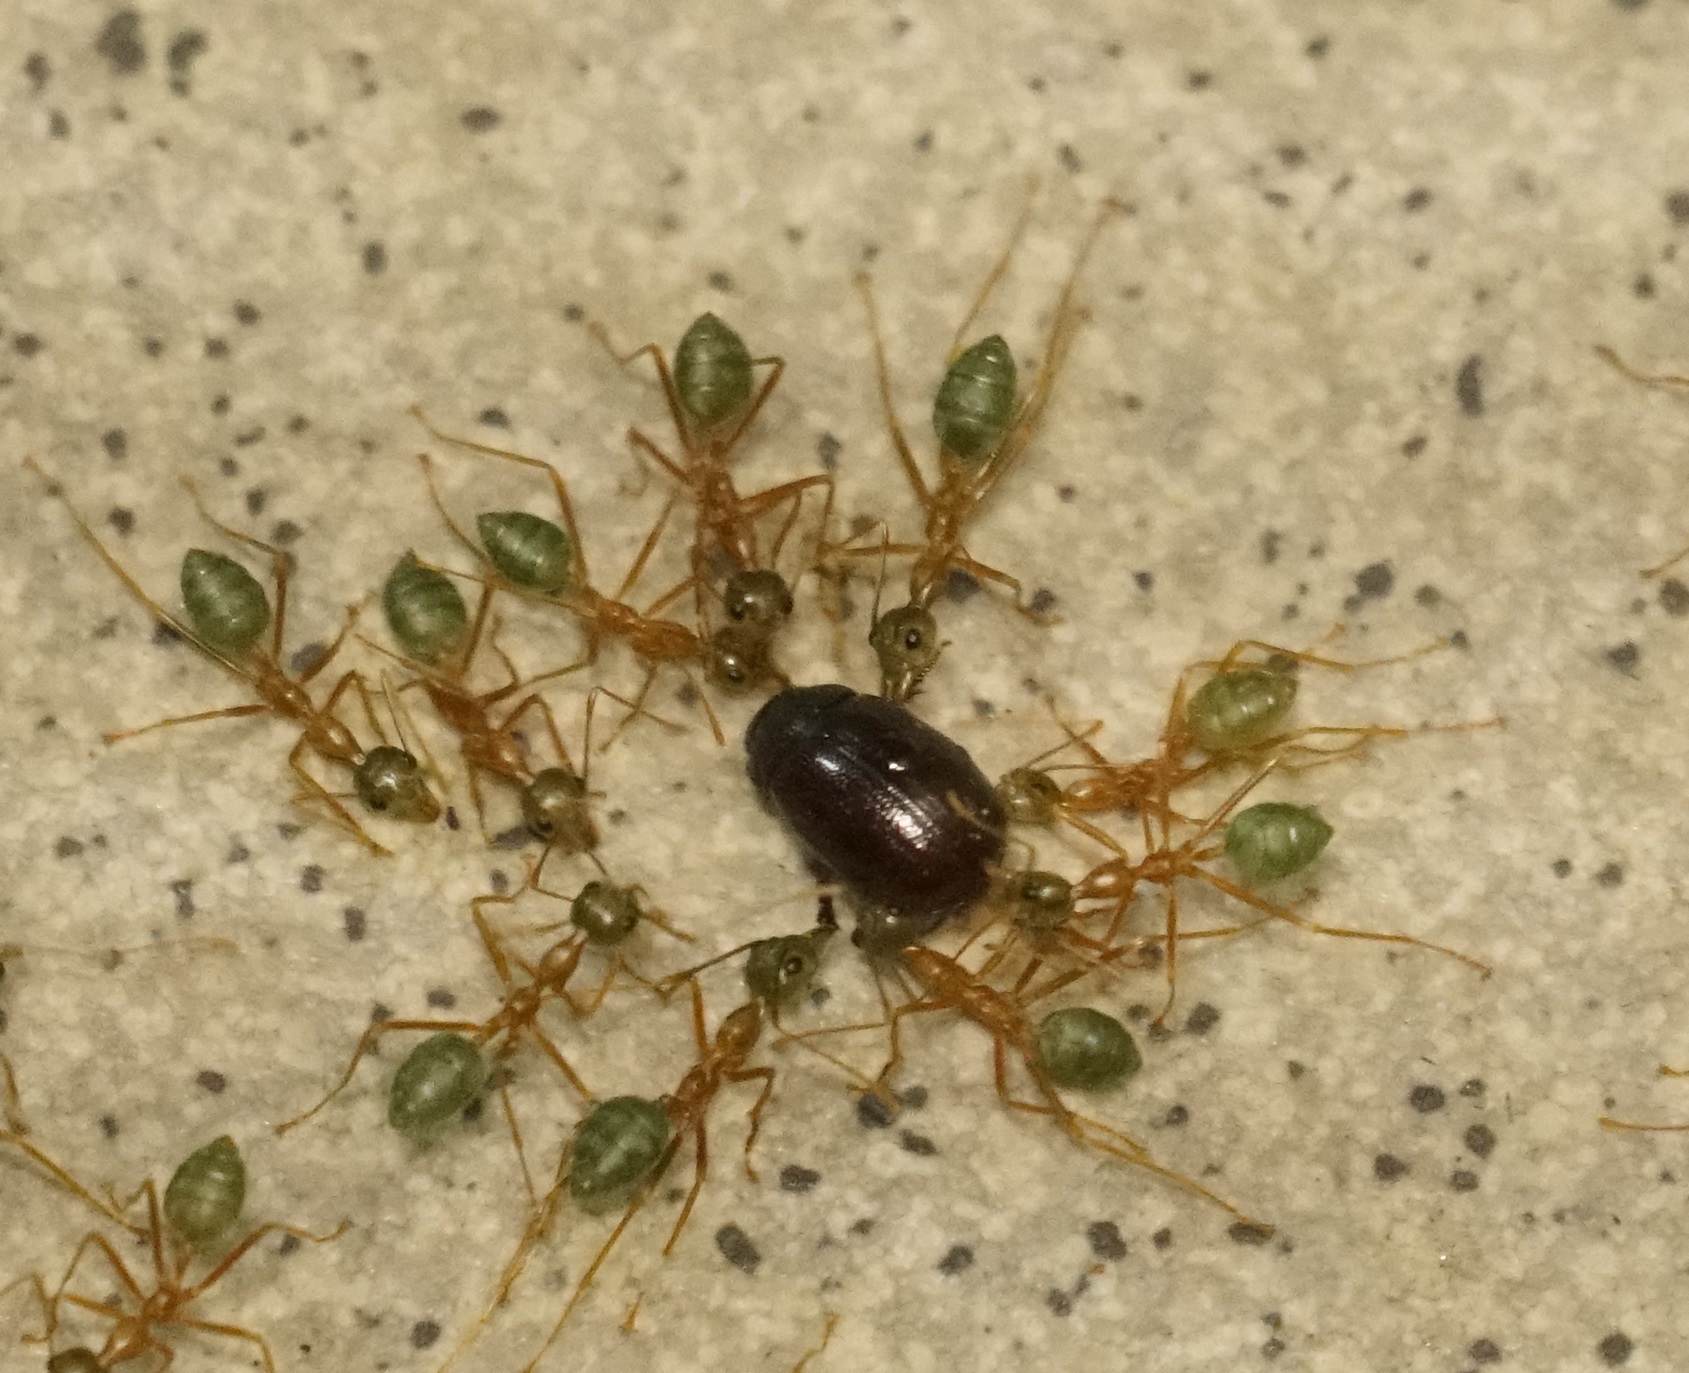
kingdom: Animalia
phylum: Arthropoda
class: Insecta
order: Hymenoptera
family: Formicidae
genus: Oecophylla
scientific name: Oecophylla smaragdina
